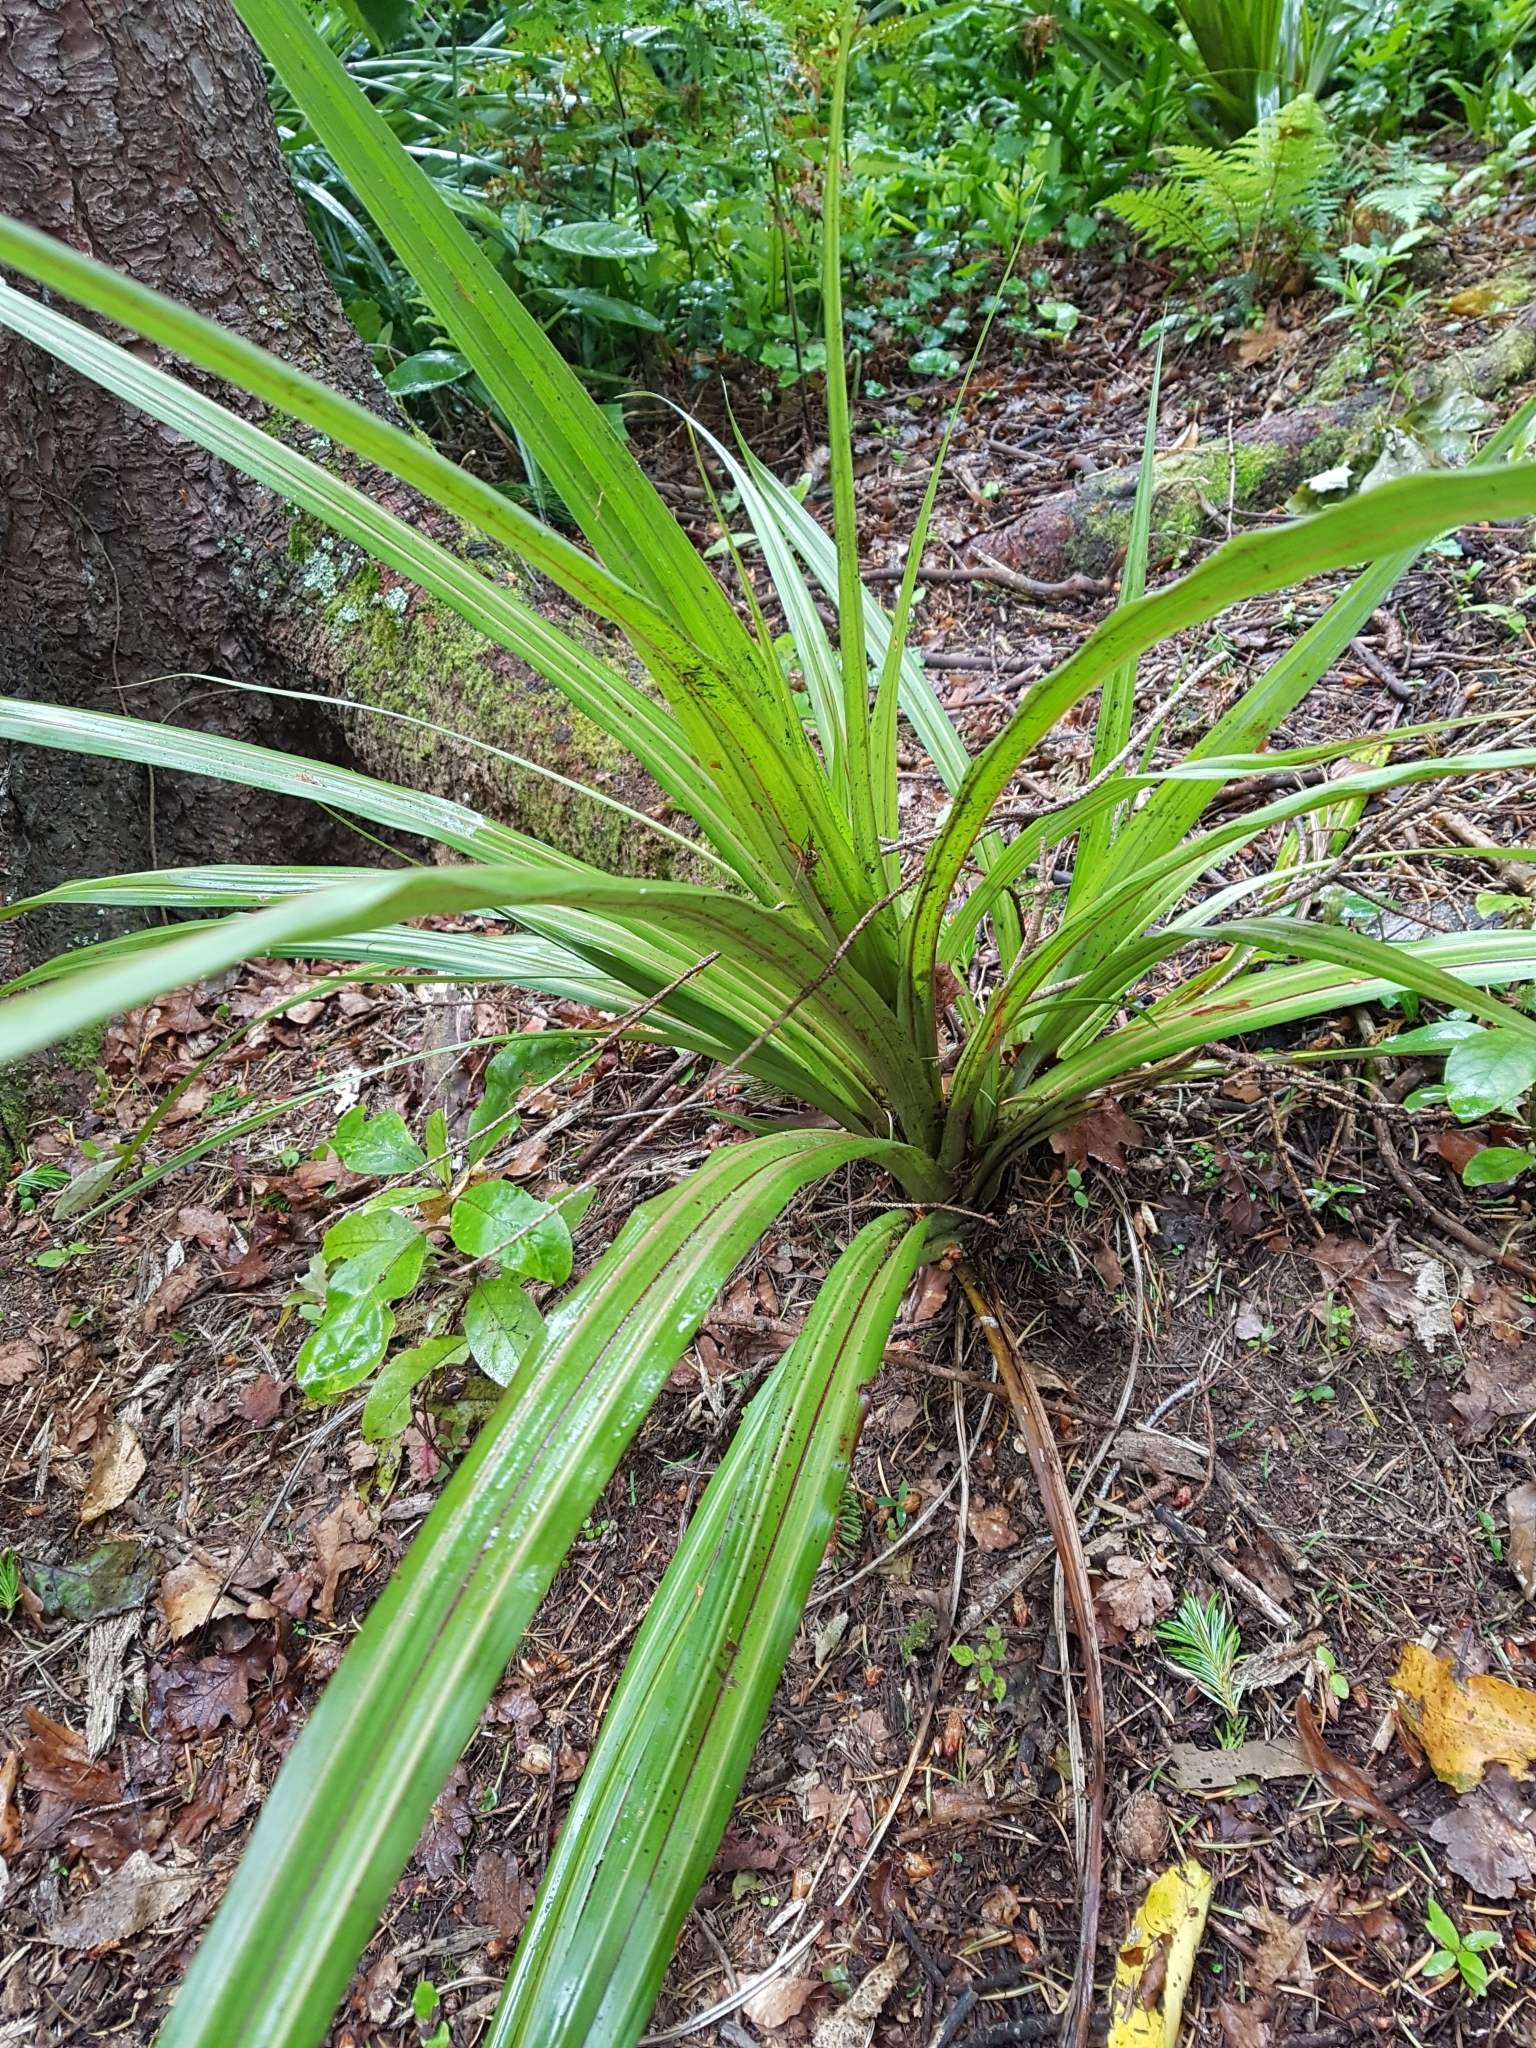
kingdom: Plantae
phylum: Tracheophyta
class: Liliopsida
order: Asparagales
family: Asteliaceae
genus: Astelia
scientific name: Astelia fragrans
